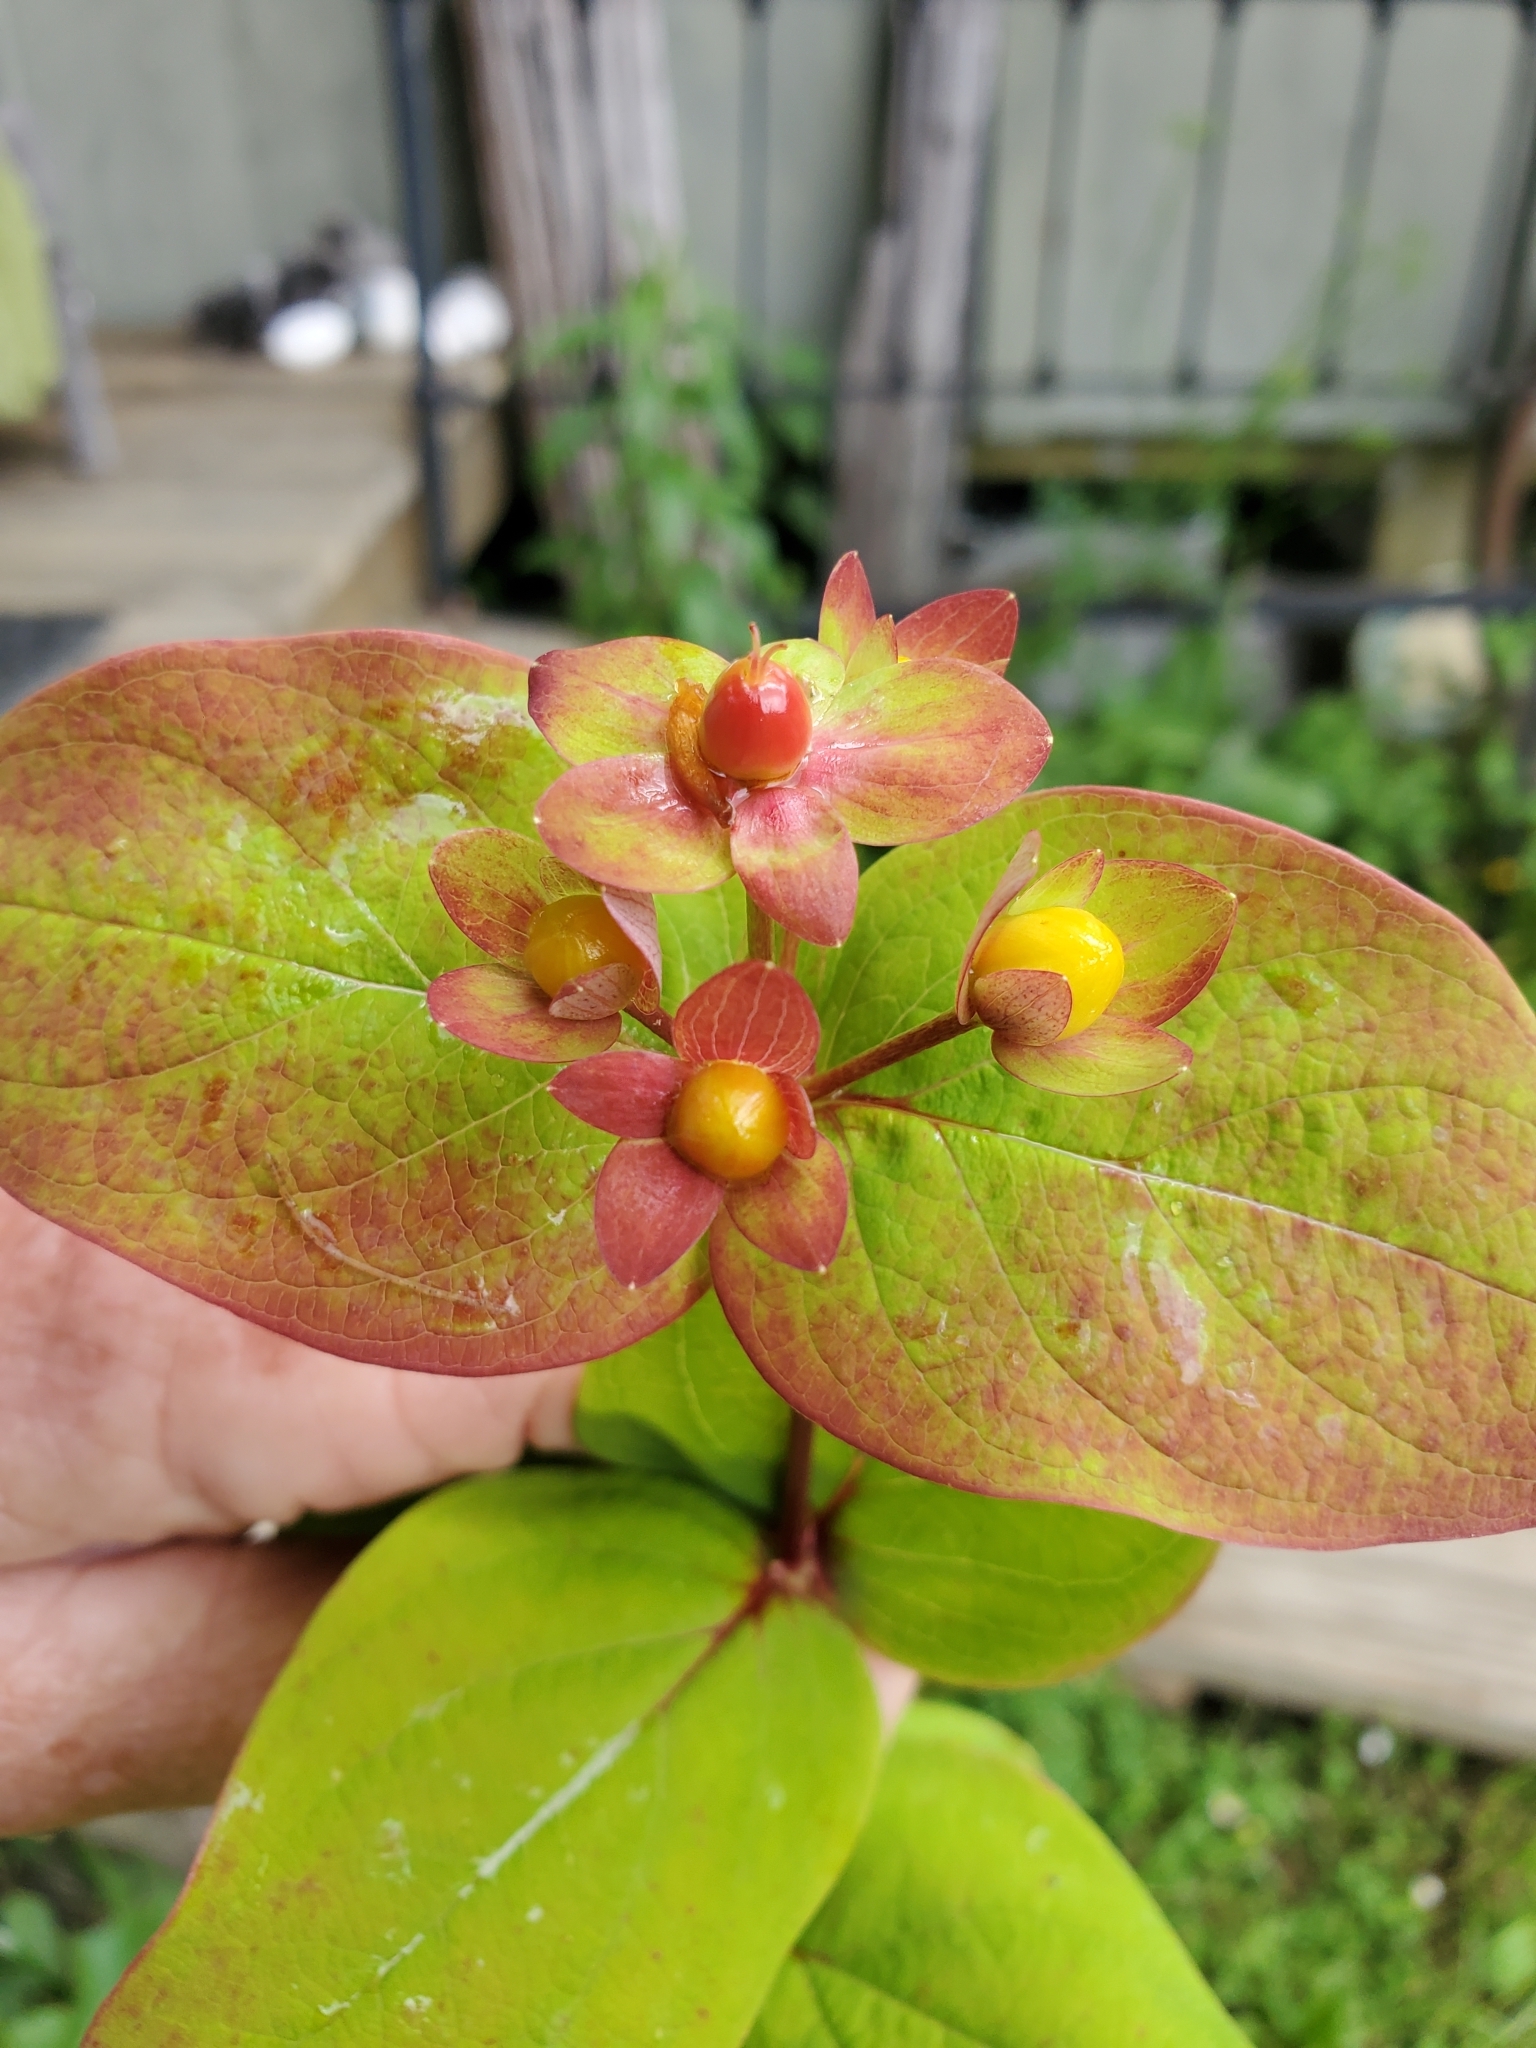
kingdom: Plantae
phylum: Tracheophyta
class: Magnoliopsida
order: Malpighiales
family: Hypericaceae
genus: Hypericum
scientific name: Hypericum androsaemum
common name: Sweet-amber
